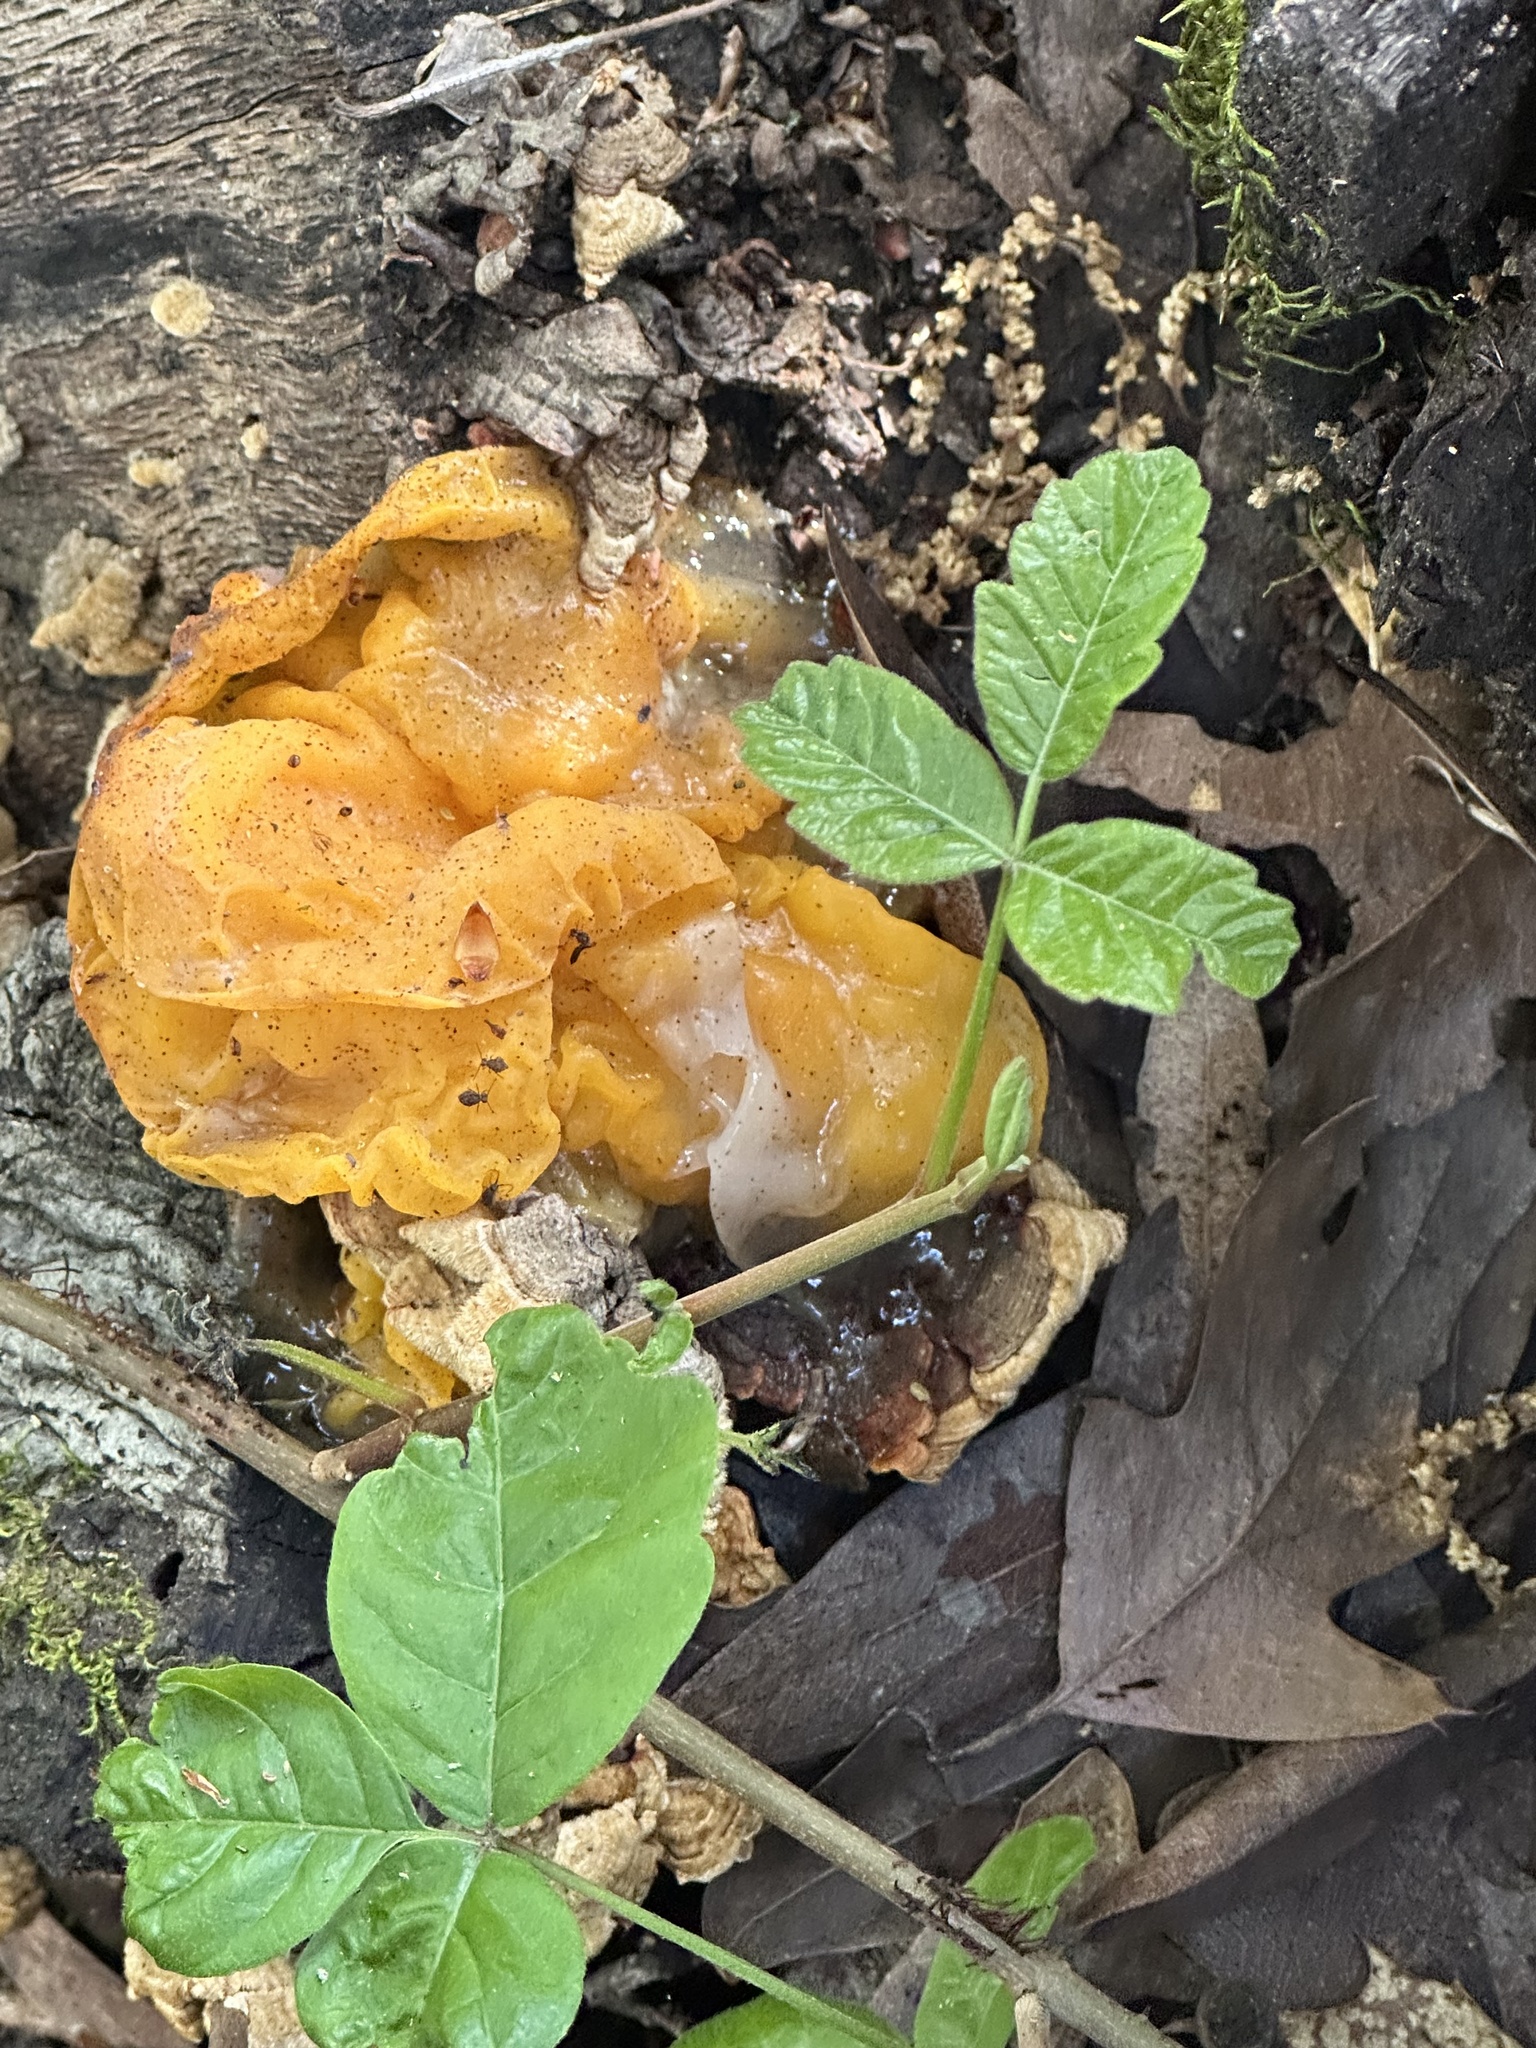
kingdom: Fungi
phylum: Basidiomycota
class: Tremellomycetes
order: Tremellales
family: Naemateliaceae
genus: Naematelia
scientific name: Naematelia aurantia
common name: Golden ear
